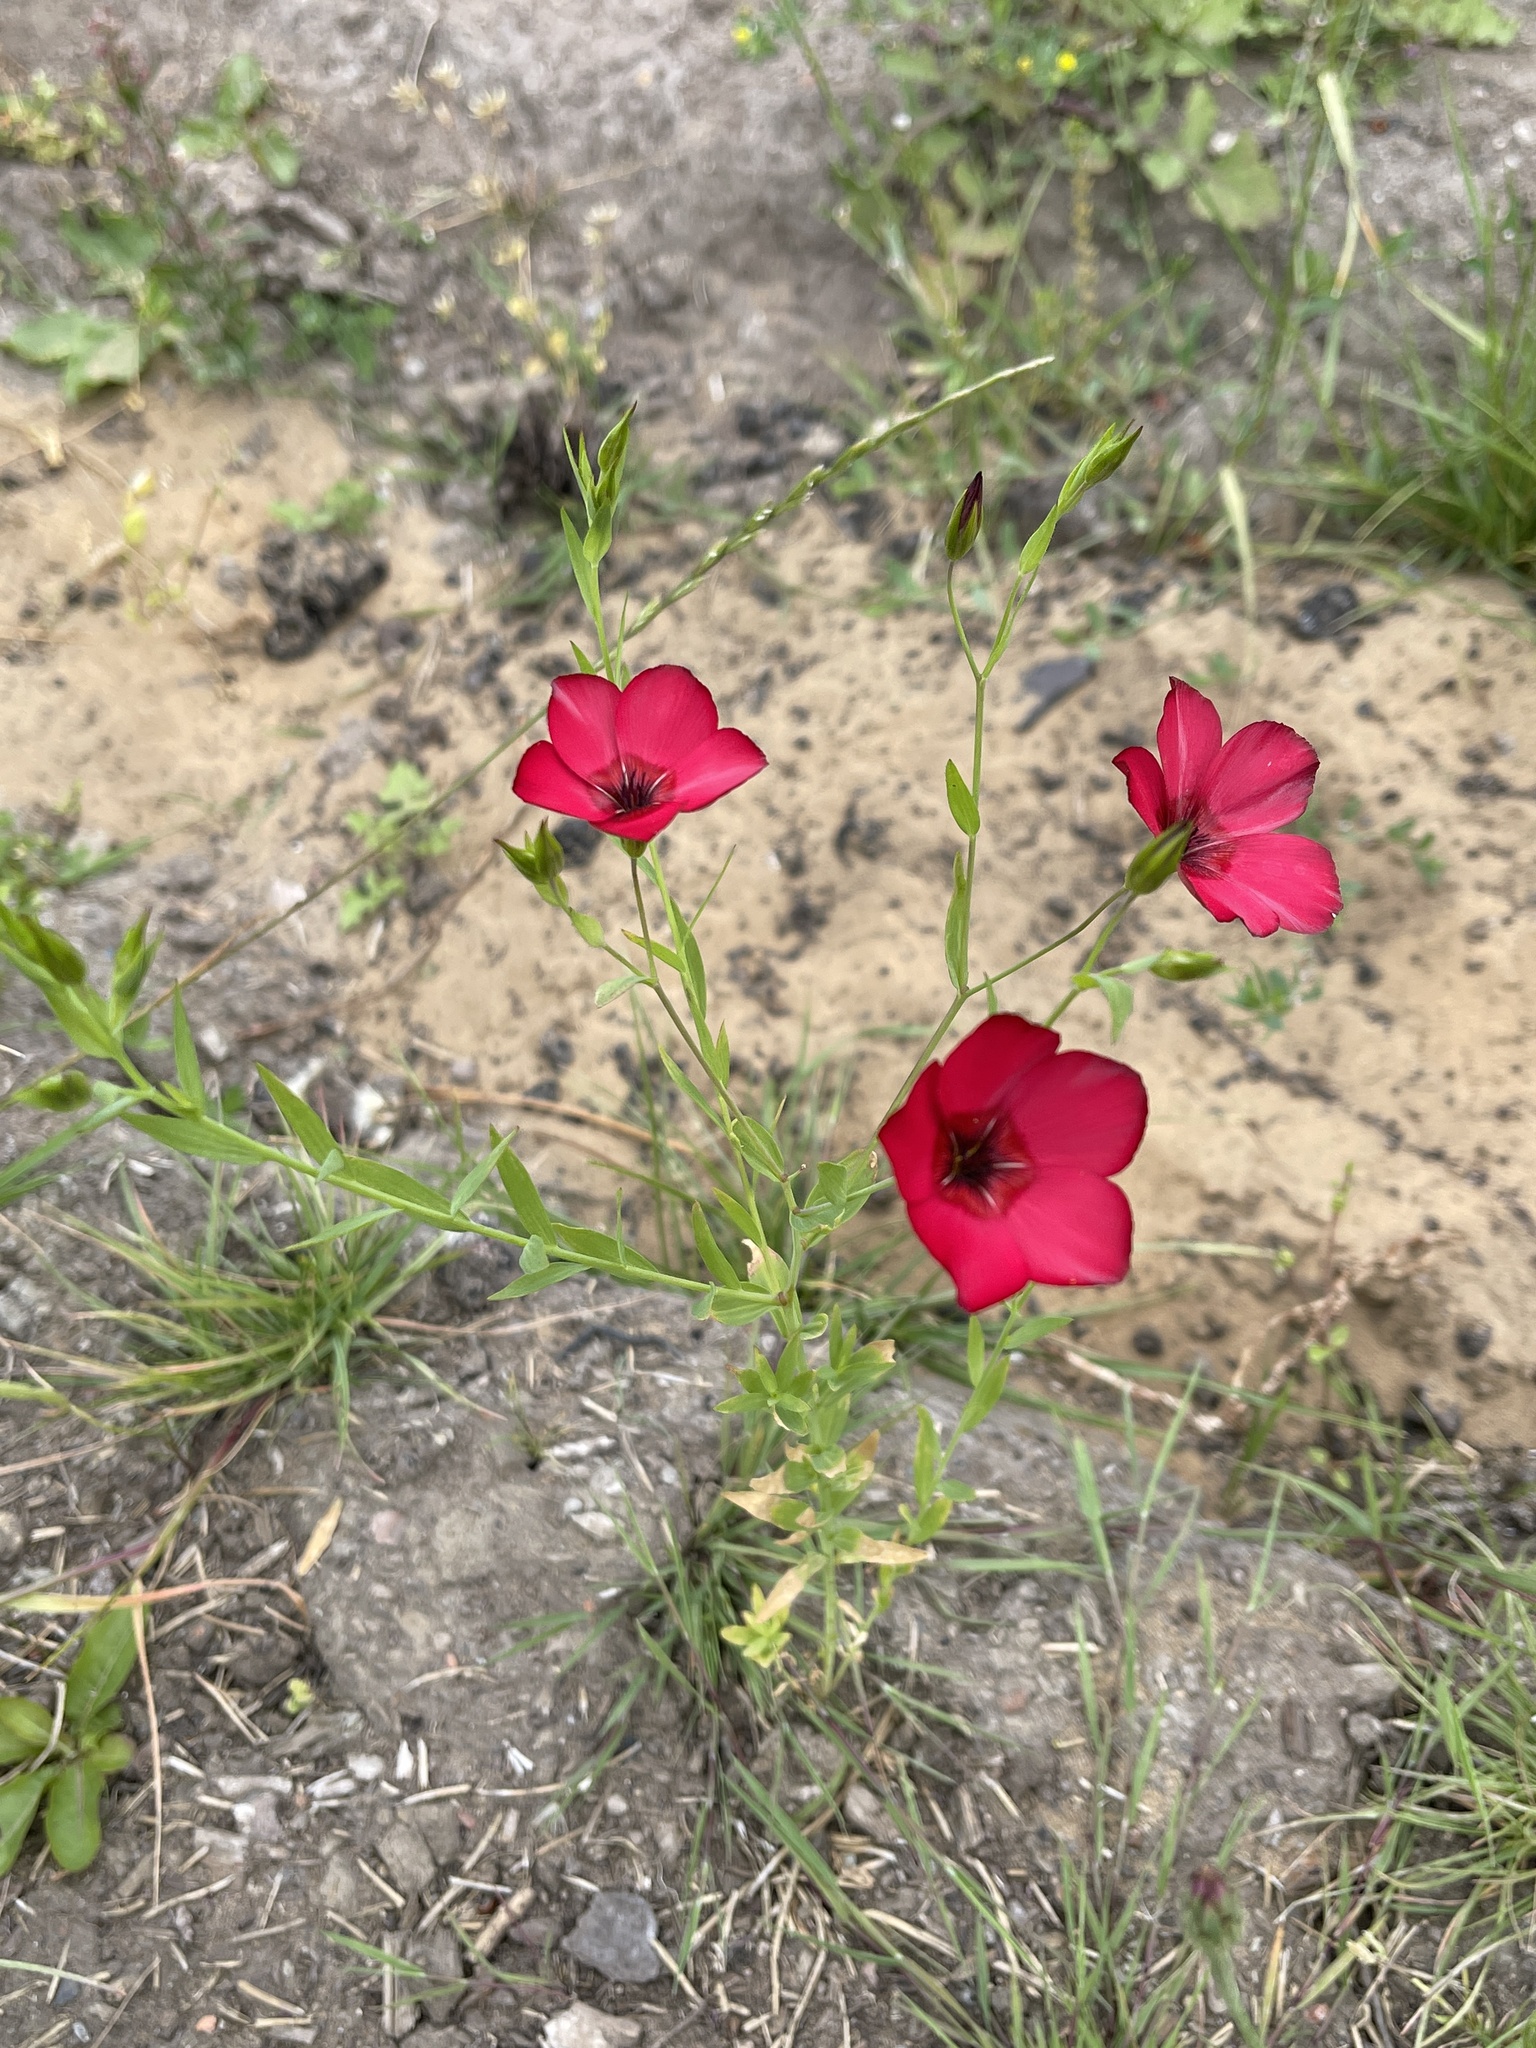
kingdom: Plantae
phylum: Tracheophyta
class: Magnoliopsida
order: Malpighiales
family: Linaceae
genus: Linum
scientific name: Linum grandiflorum
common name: Crimson flax
